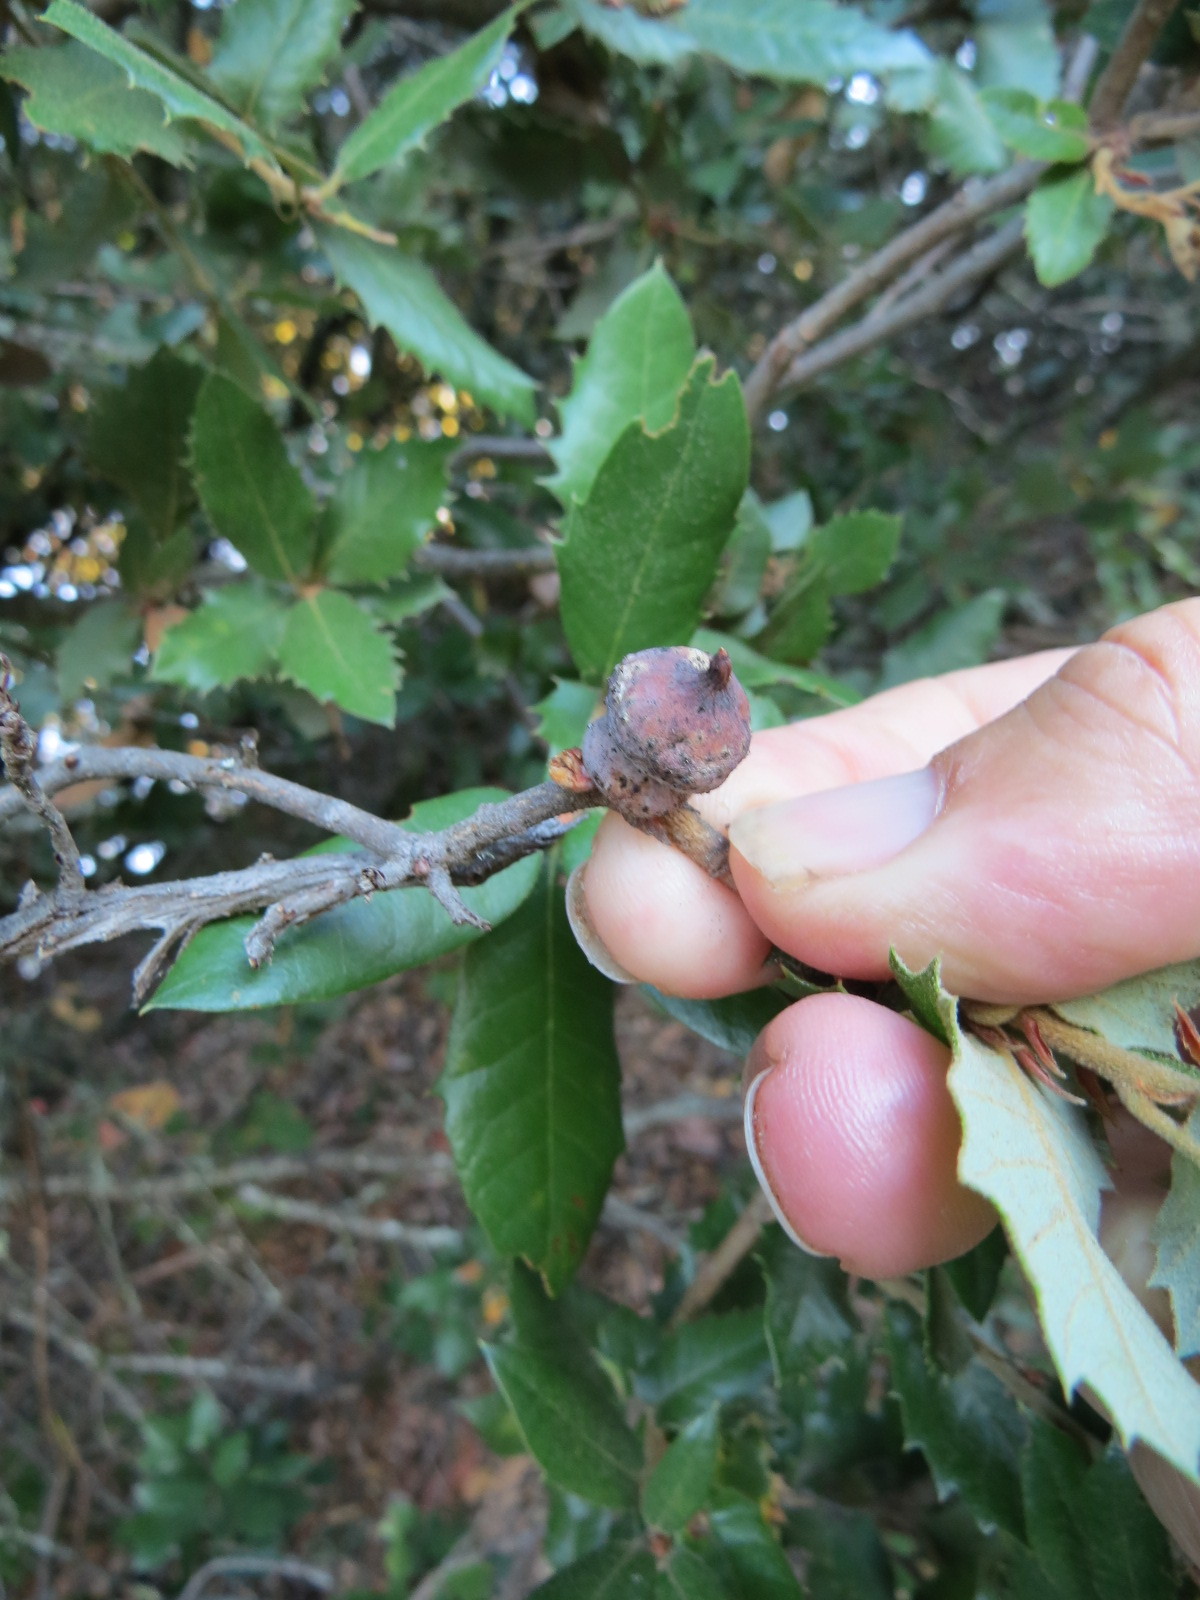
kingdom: Animalia
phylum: Arthropoda
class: Insecta
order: Hymenoptera
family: Cynipidae
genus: Heteroecus
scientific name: Heteroecus
